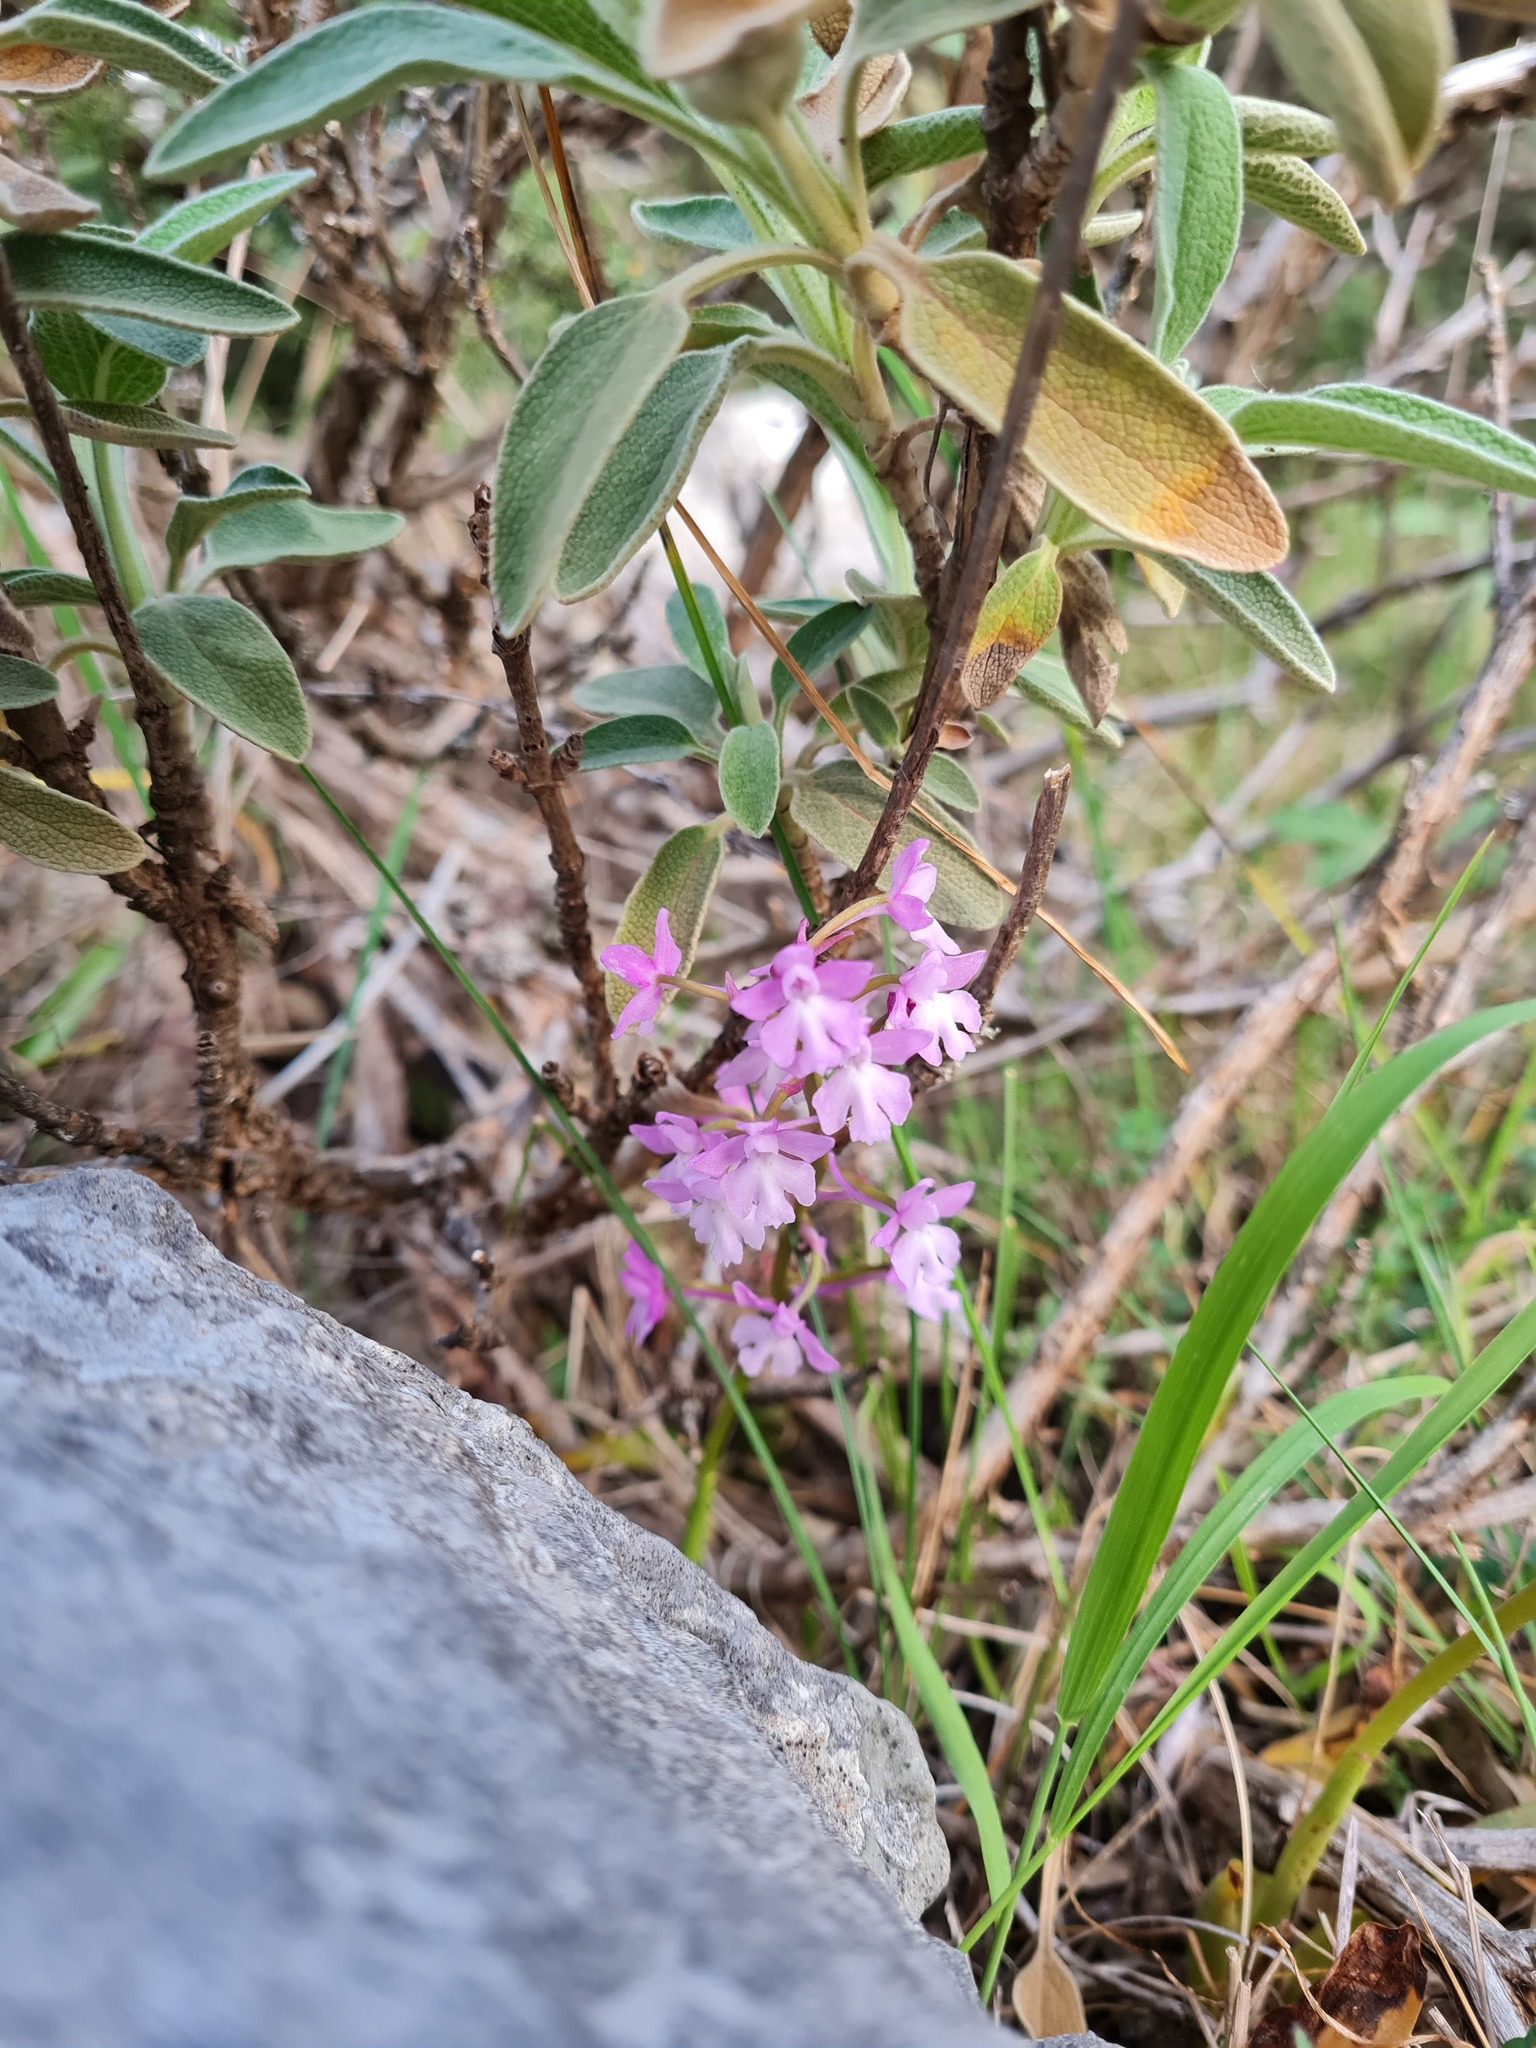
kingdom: Plantae
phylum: Tracheophyta
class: Liliopsida
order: Asparagales
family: Orchidaceae
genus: Orchis
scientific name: Orchis quadripunctata
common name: Four-spotted orchid
